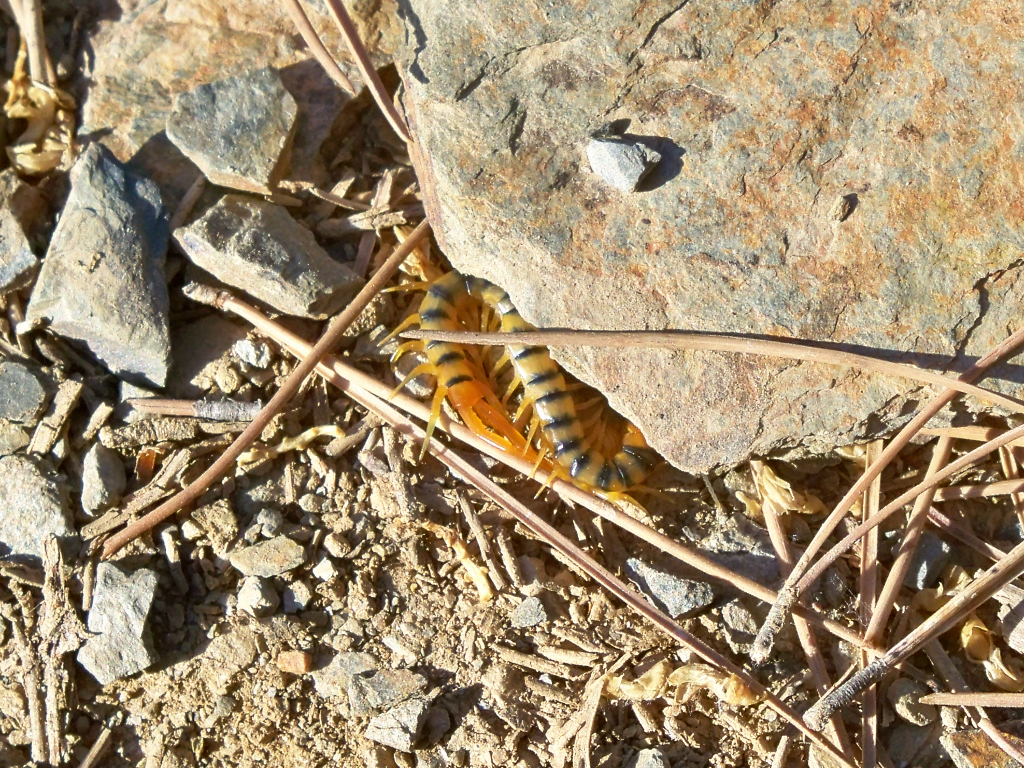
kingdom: Animalia
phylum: Arthropoda
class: Chilopoda
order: Scolopendromorpha
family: Scolopendridae
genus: Scolopendra
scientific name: Scolopendra cingulata
